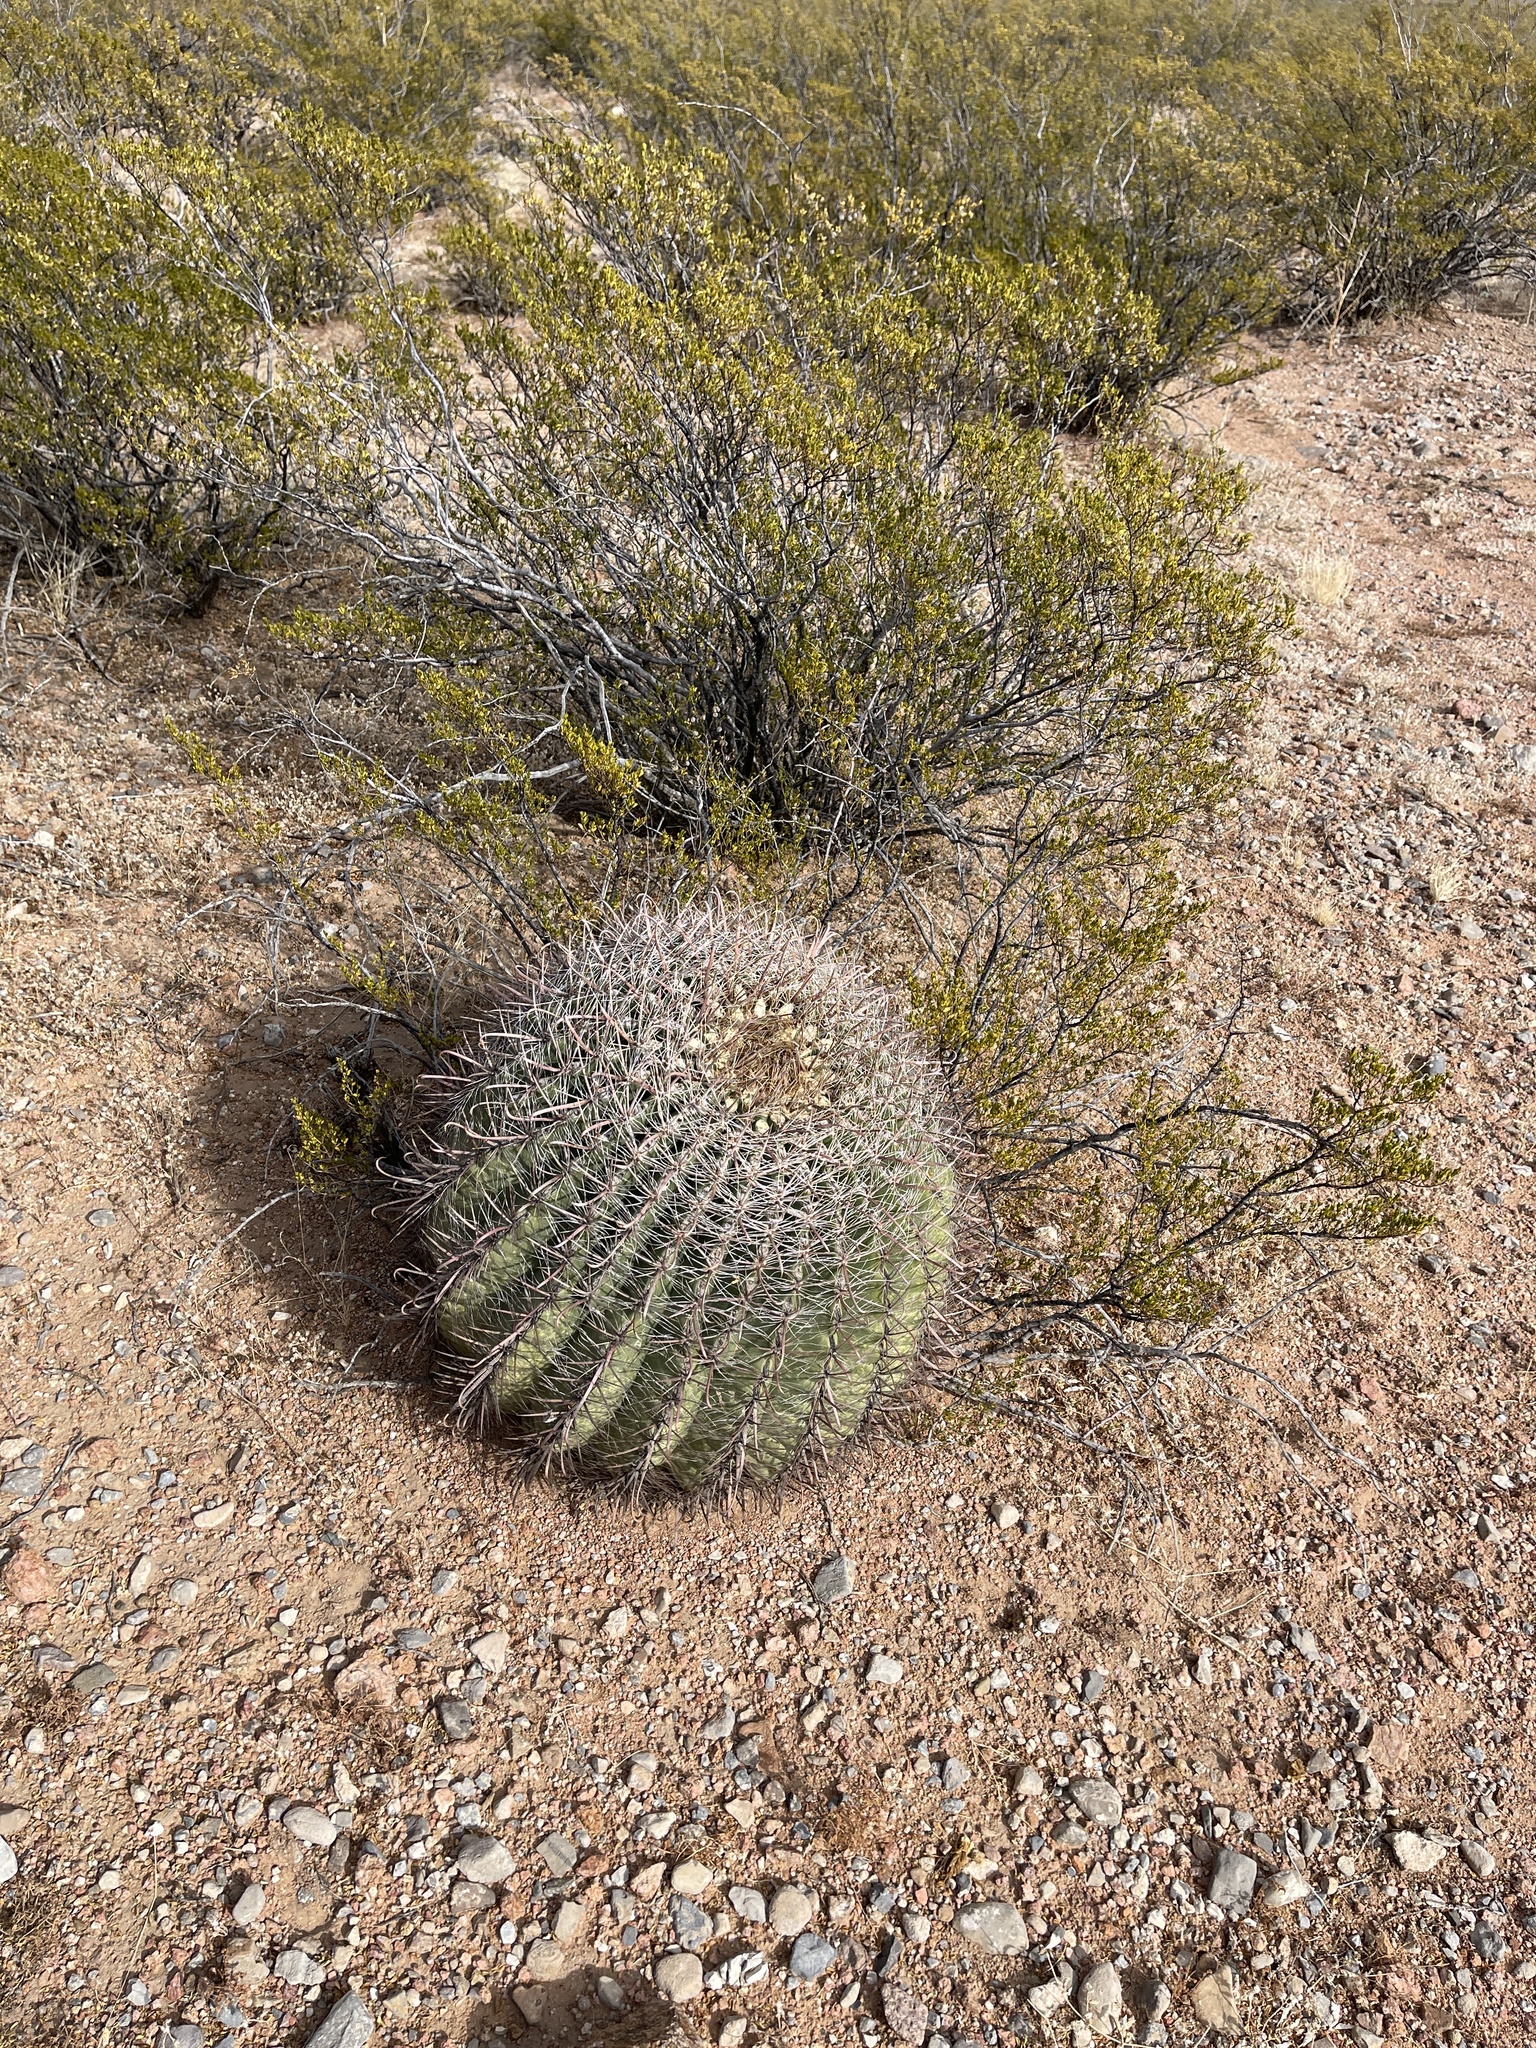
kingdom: Plantae
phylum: Tracheophyta
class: Magnoliopsida
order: Caryophyllales
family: Cactaceae
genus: Ferocactus
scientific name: Ferocactus wislizeni
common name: Candy barrel cactus
